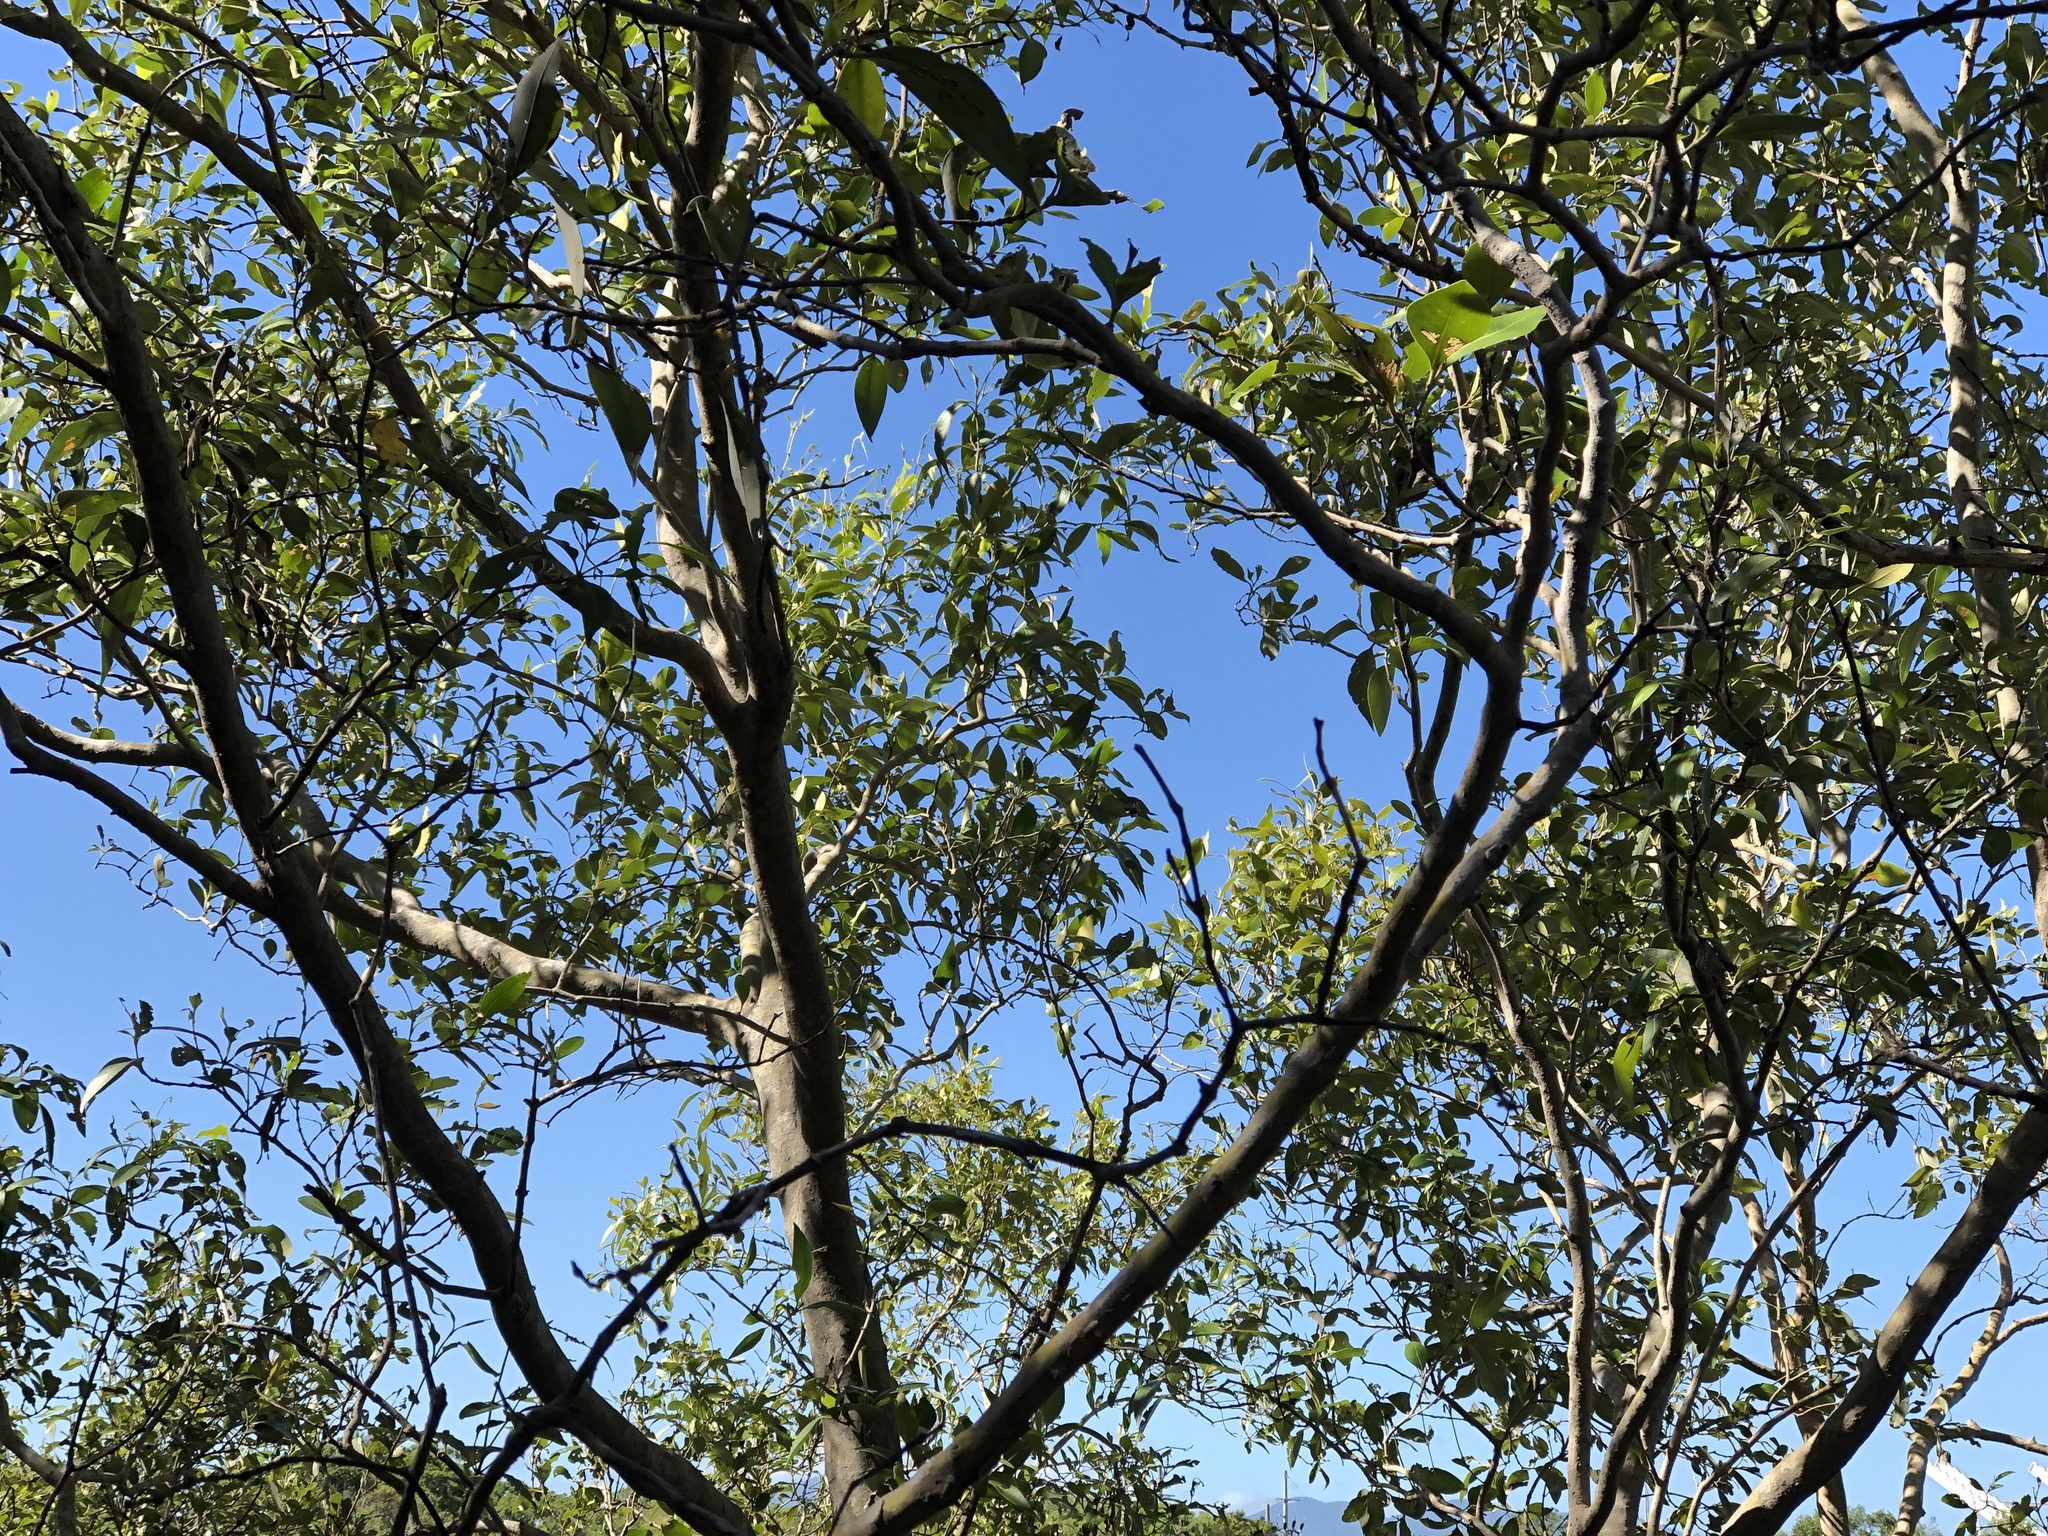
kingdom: Plantae
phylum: Tracheophyta
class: Magnoliopsida
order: Lamiales
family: Acanthaceae
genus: Avicennia
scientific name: Avicennia marina
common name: Gray mangrove
